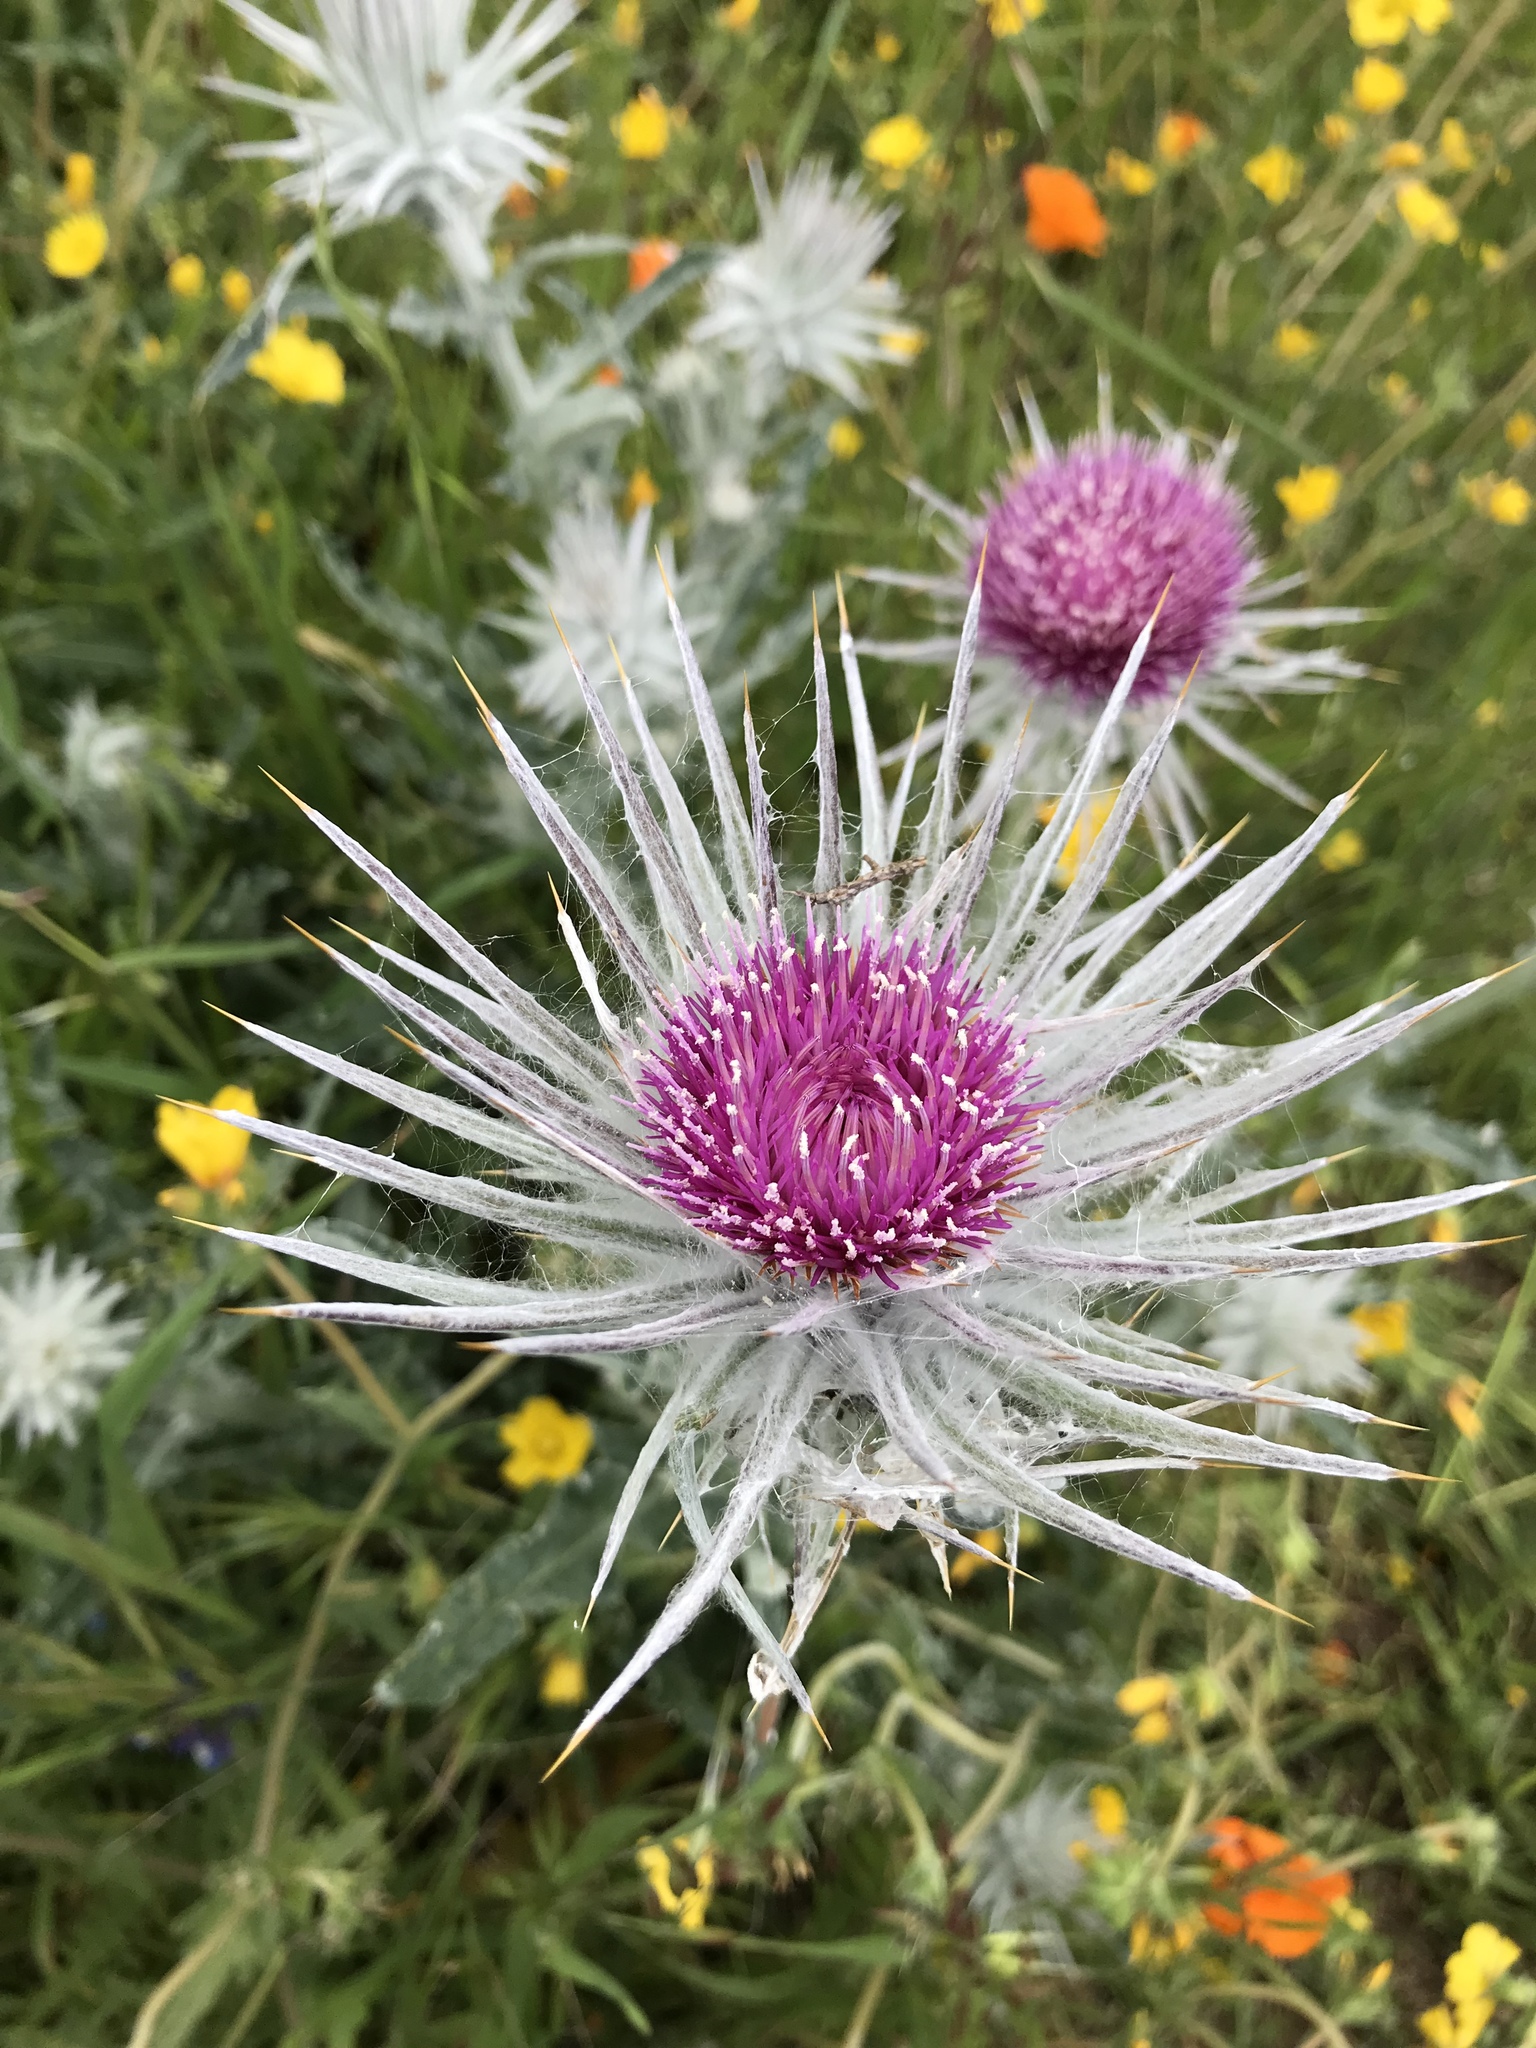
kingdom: Plantae
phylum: Tracheophyta
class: Magnoliopsida
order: Asterales
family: Asteraceae
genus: Cirsium
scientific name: Cirsium occidentale
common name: Western thistle
